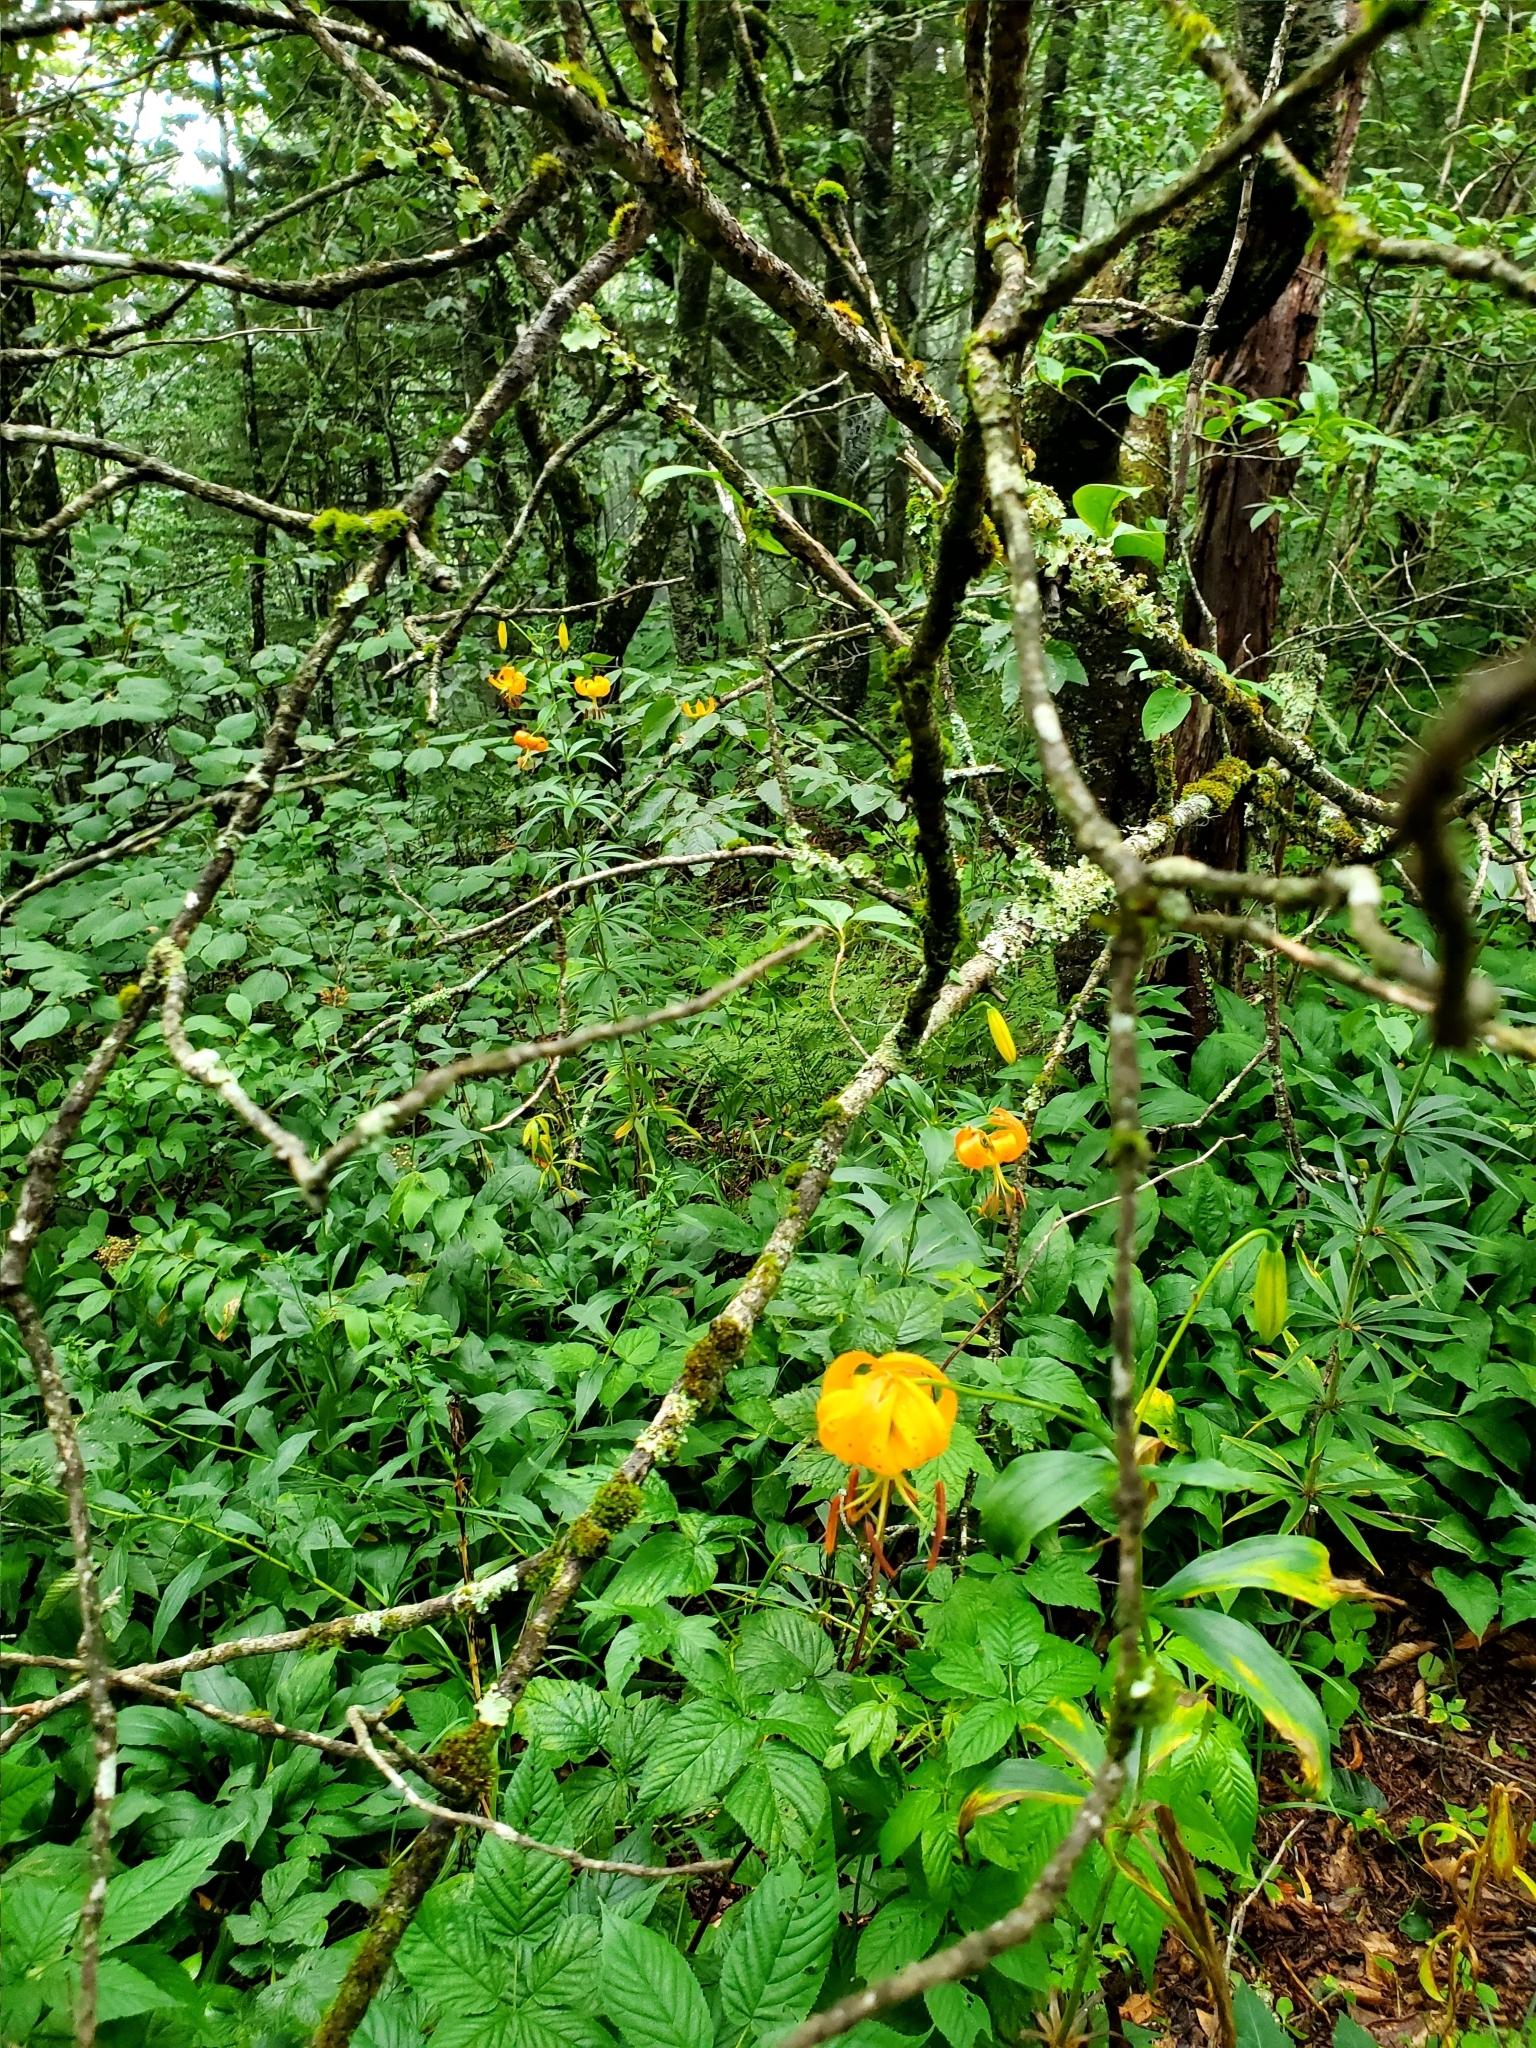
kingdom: Plantae
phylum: Tracheophyta
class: Liliopsida
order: Liliales
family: Liliaceae
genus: Lilium
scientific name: Lilium superbum
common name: American turk's-cap lily
